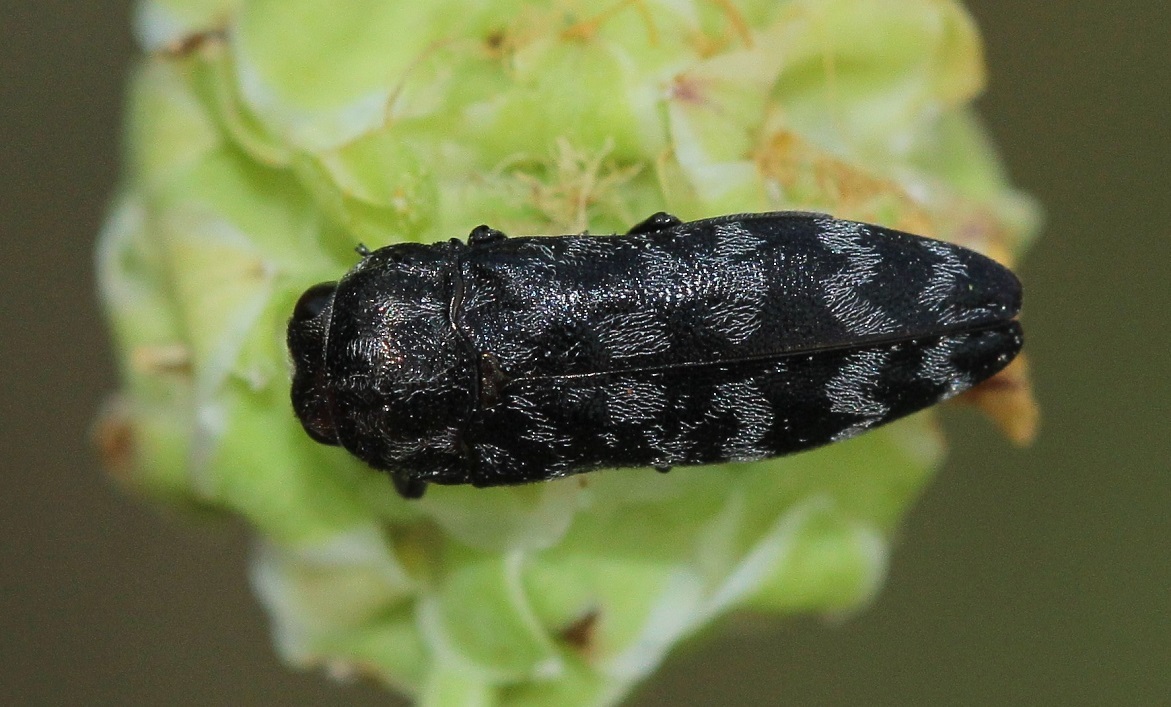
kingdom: Animalia
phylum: Arthropoda
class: Insecta
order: Coleoptera
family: Buprestidae
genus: Coraebus
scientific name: Coraebus rubi
